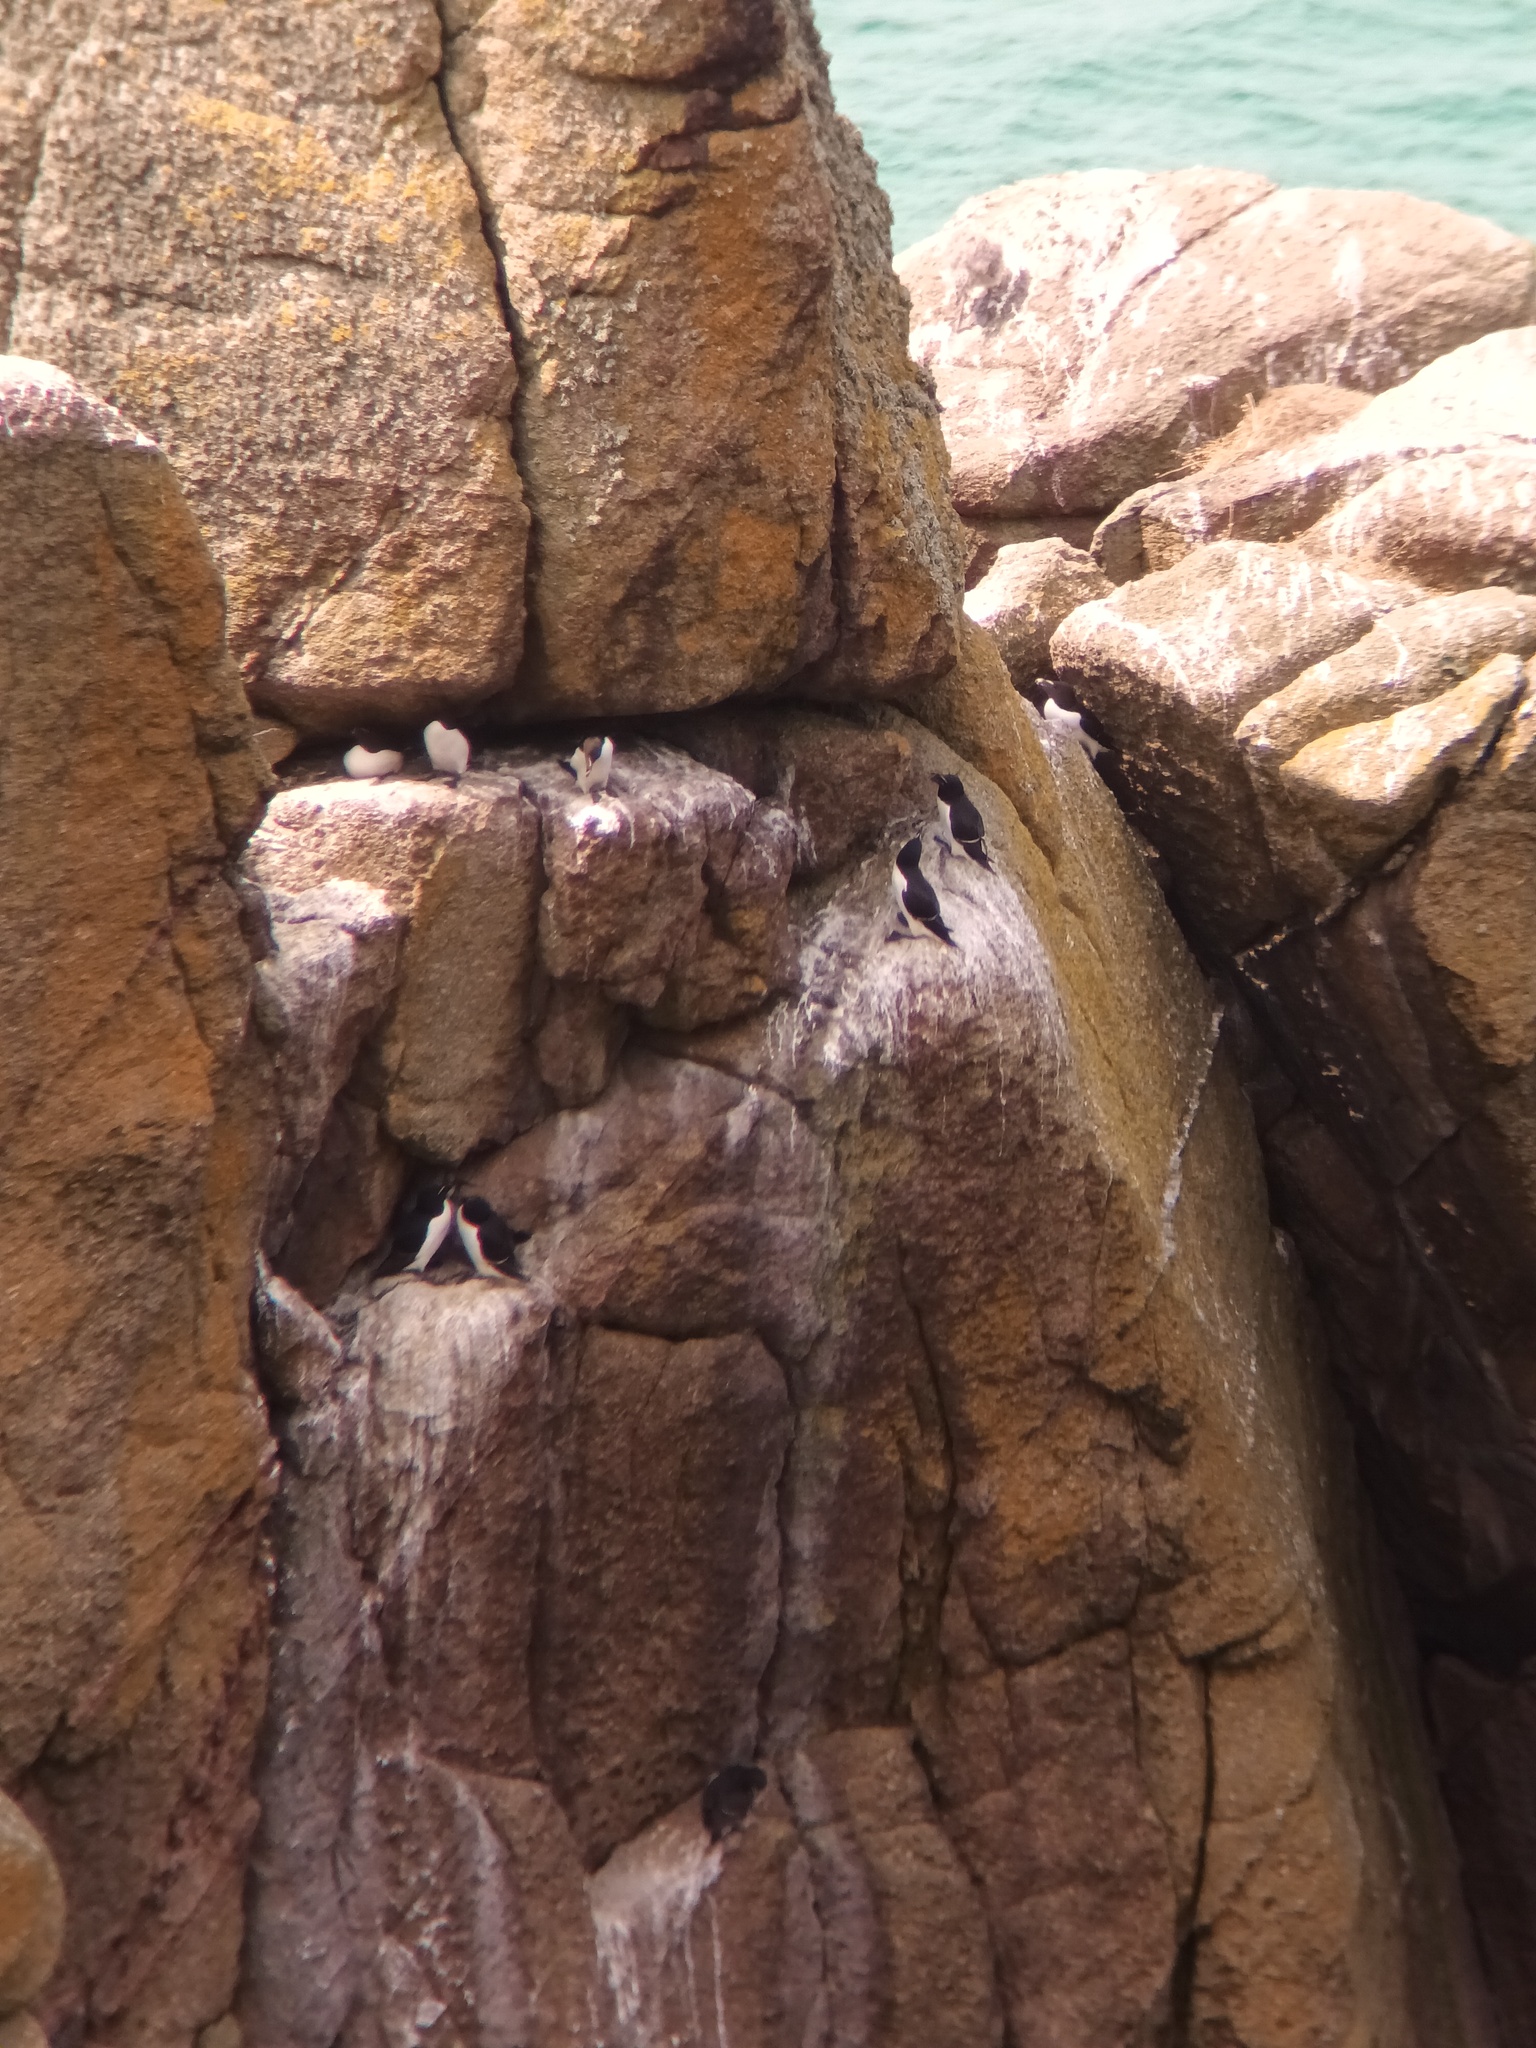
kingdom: Animalia
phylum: Chordata
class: Aves
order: Charadriiformes
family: Alcidae
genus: Alca
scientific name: Alca torda
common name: Razorbill
